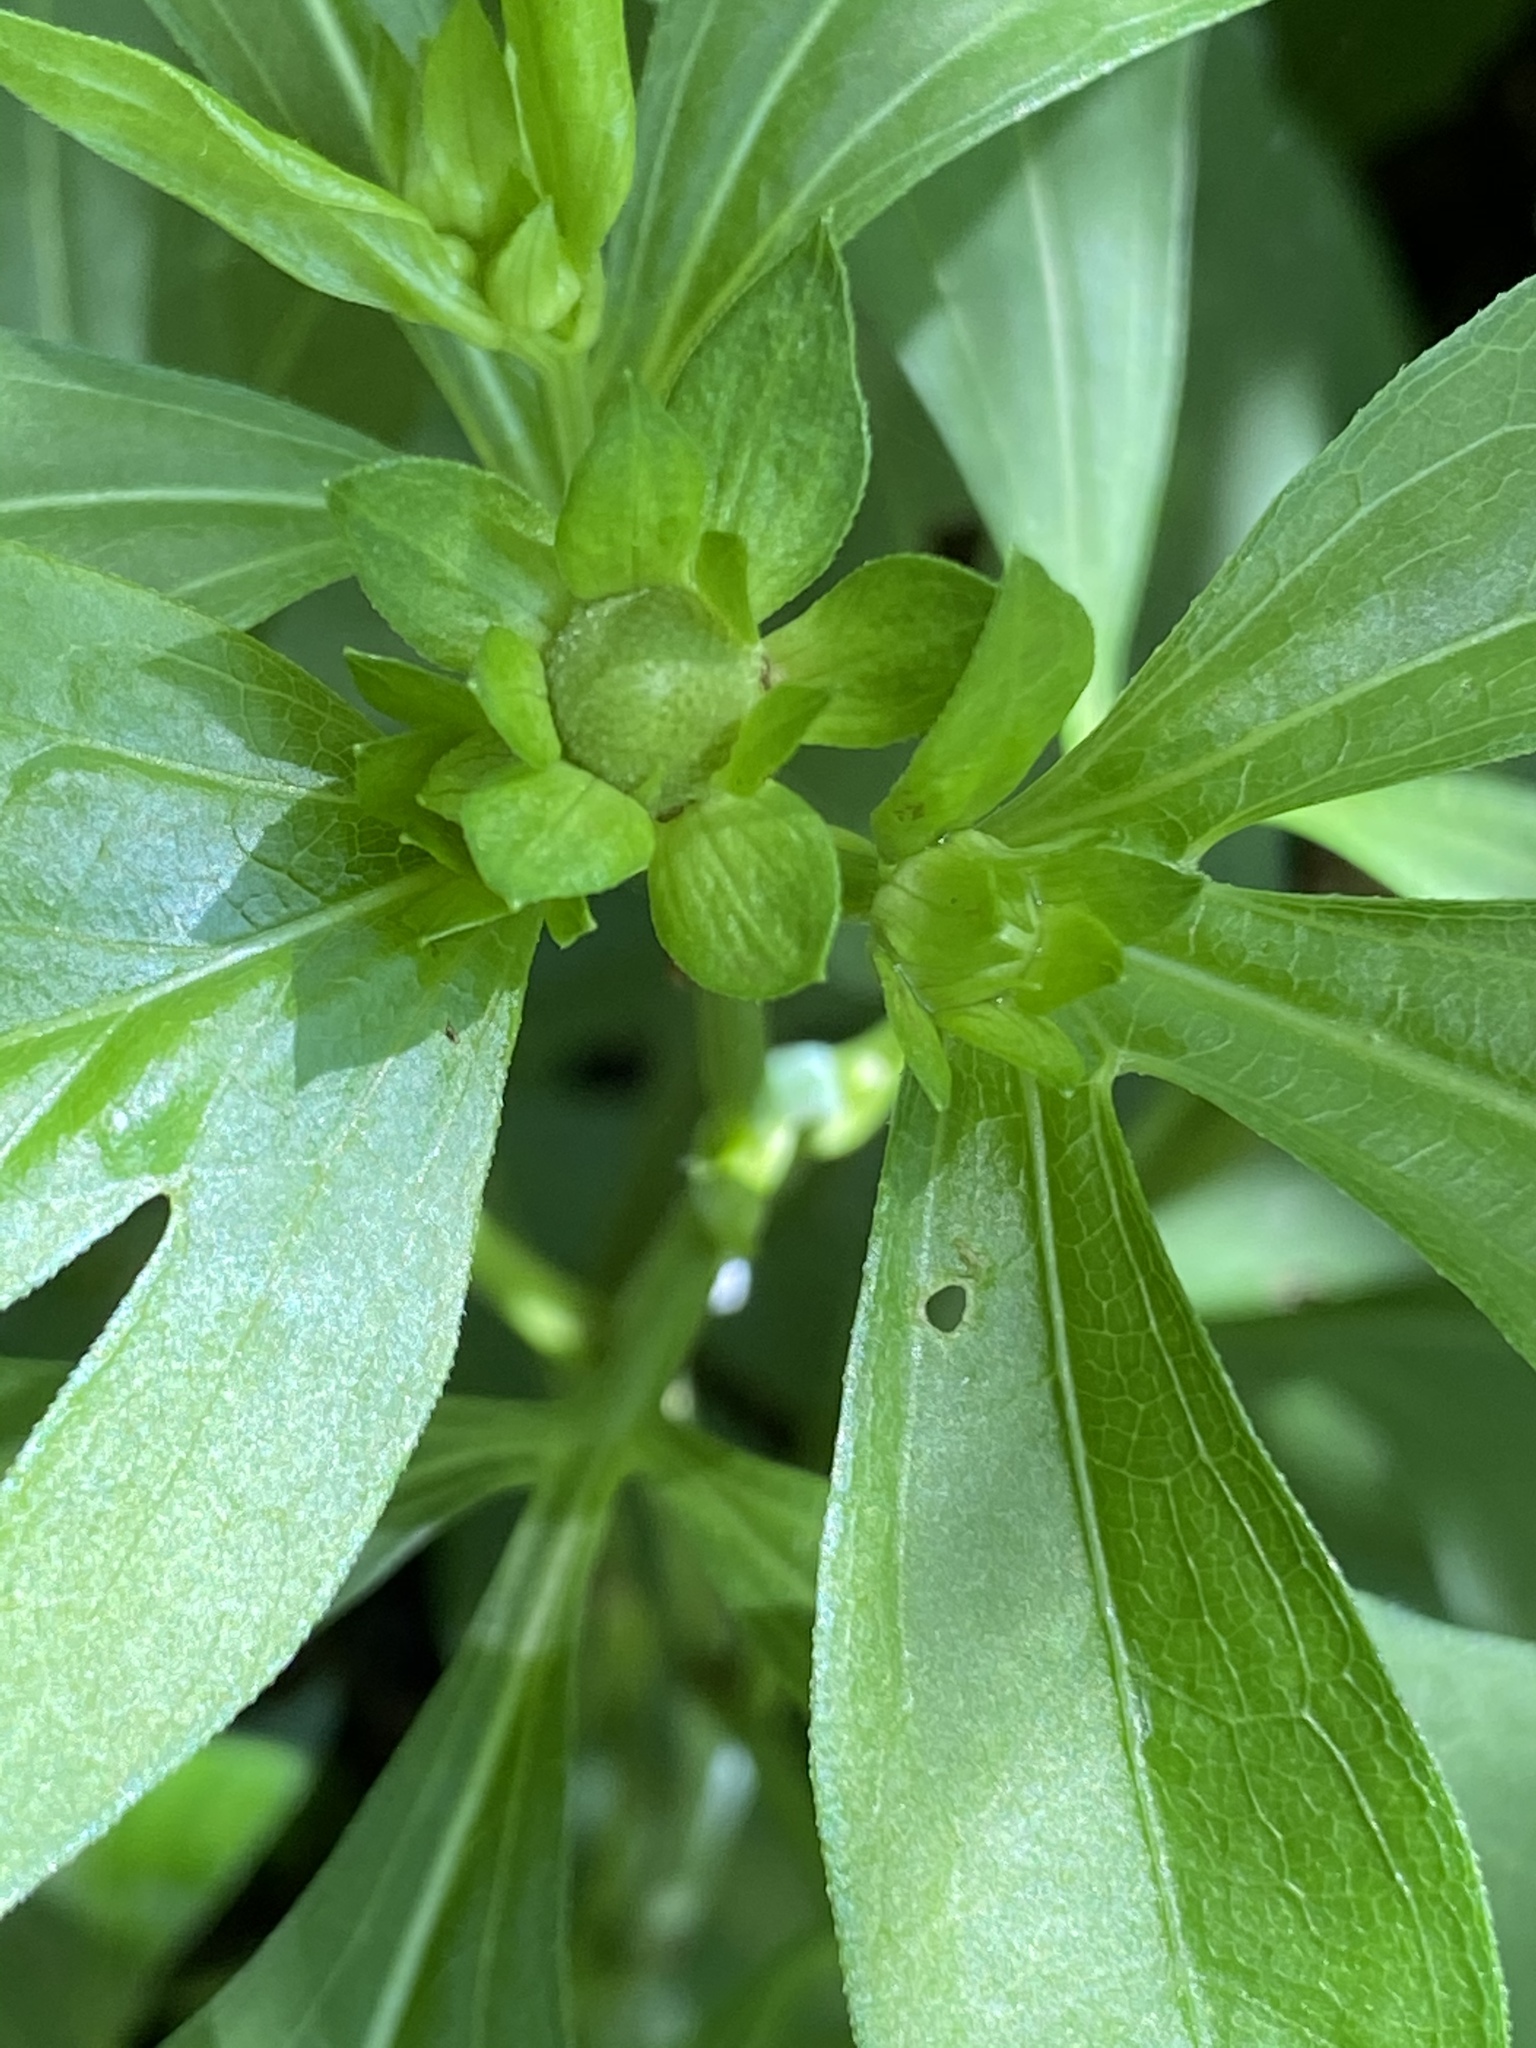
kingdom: Plantae
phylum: Tracheophyta
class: Magnoliopsida
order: Asterales
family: Asteraceae
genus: Rudbeckia
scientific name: Rudbeckia laciniata
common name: Coneflower
